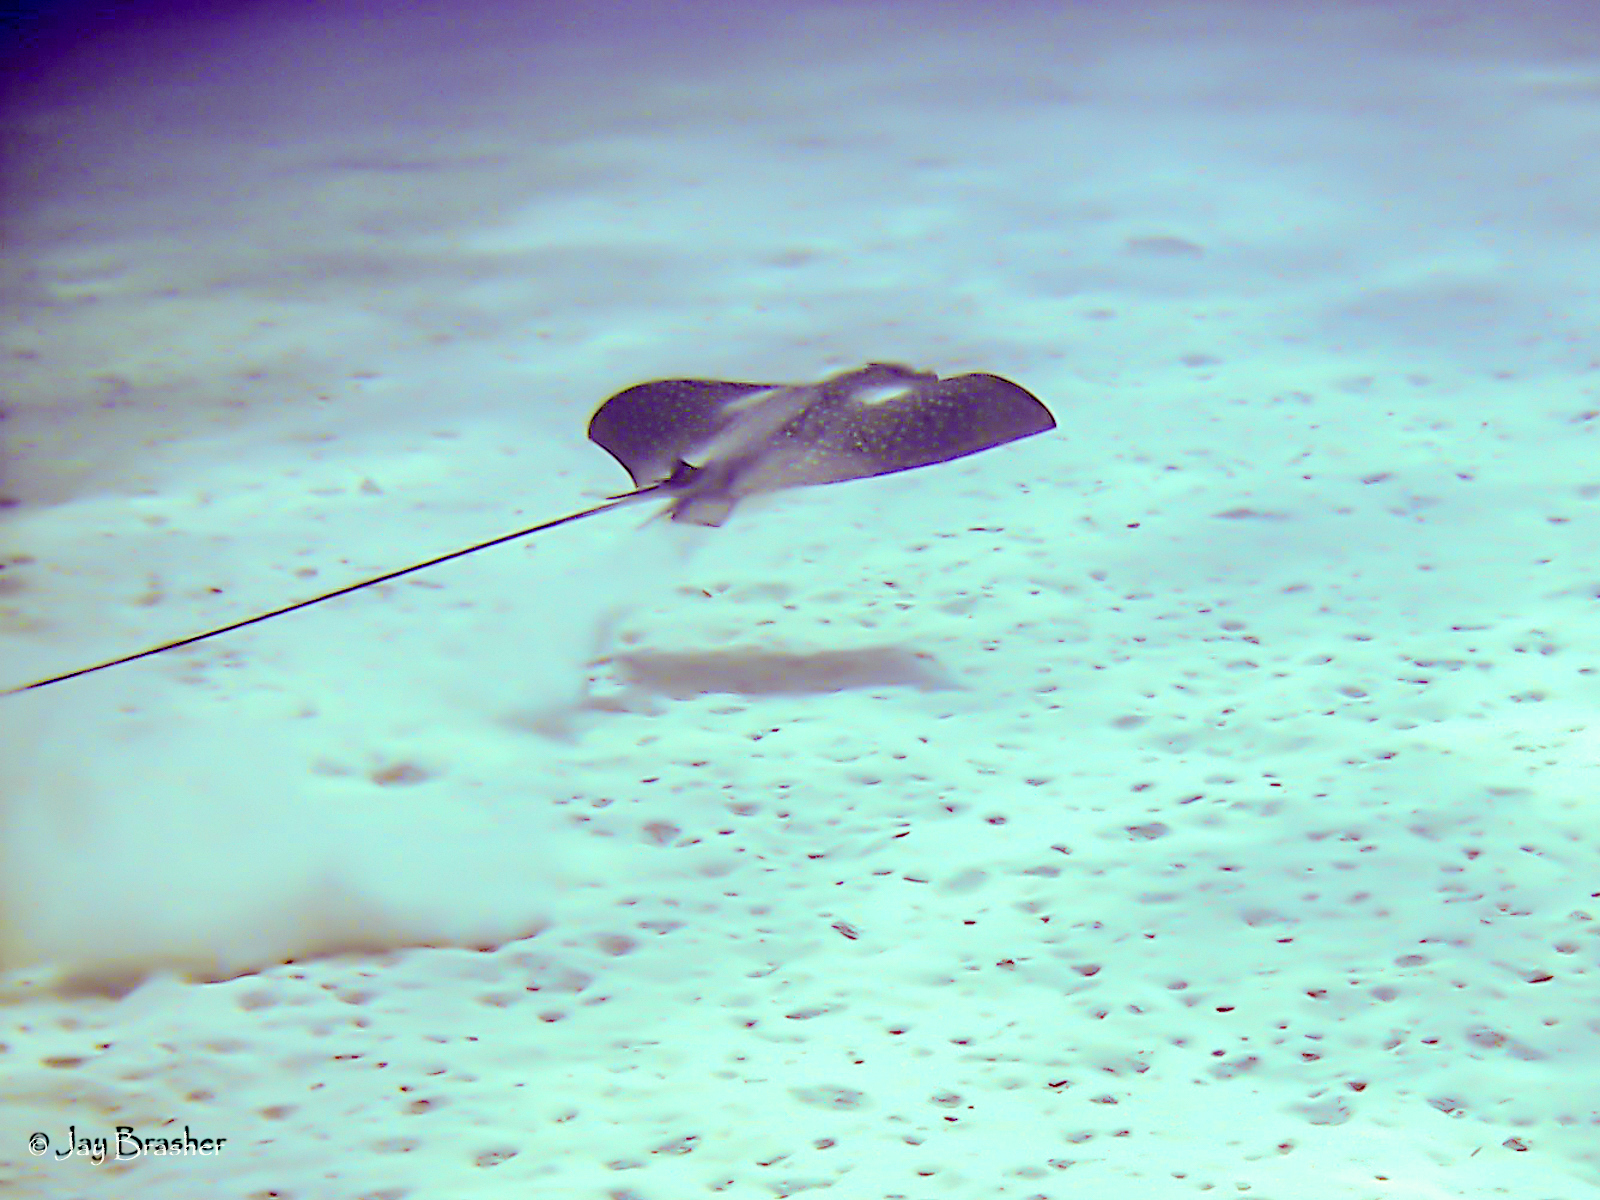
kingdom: Animalia
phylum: Chordata
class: Elasmobranchii
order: Myliobatiformes
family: Myliobatidae
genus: Aetobatus
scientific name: Aetobatus narinari
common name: Spotted eagle ray
